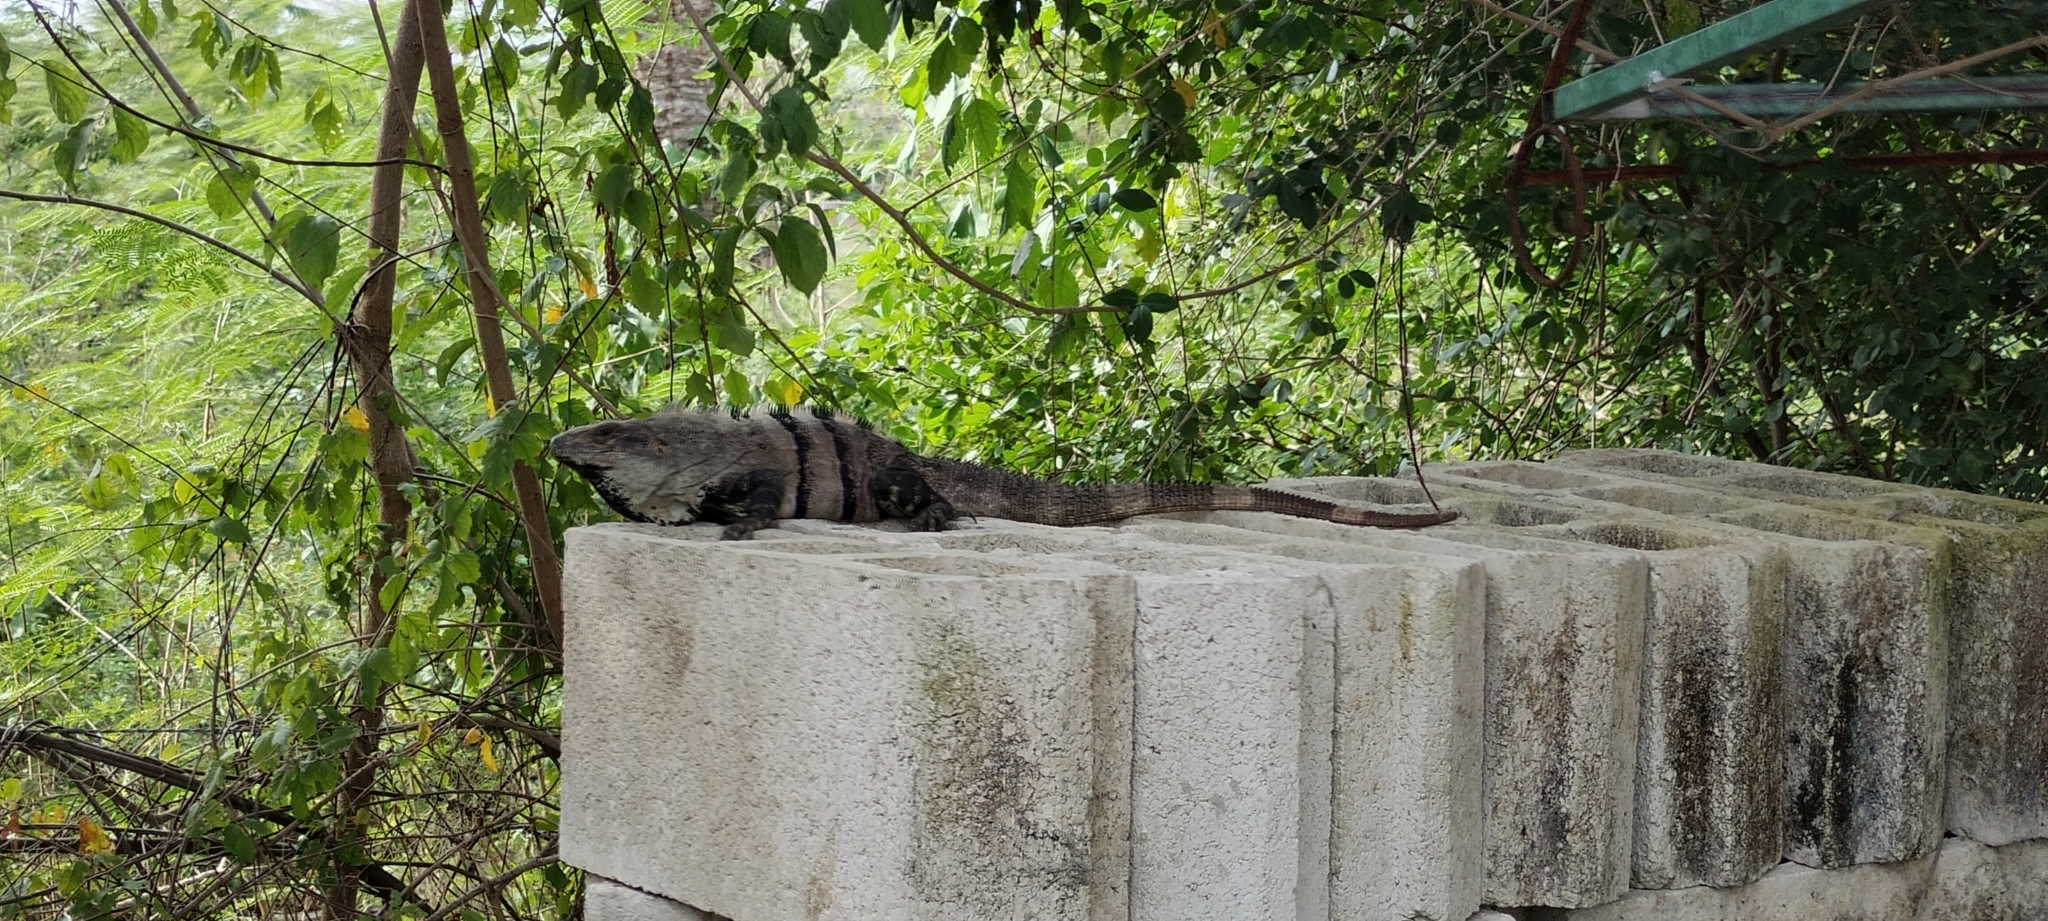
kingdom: Animalia
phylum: Chordata
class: Squamata
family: Iguanidae
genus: Ctenosaura
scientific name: Ctenosaura similis
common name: Black spiny-tailed iguana
